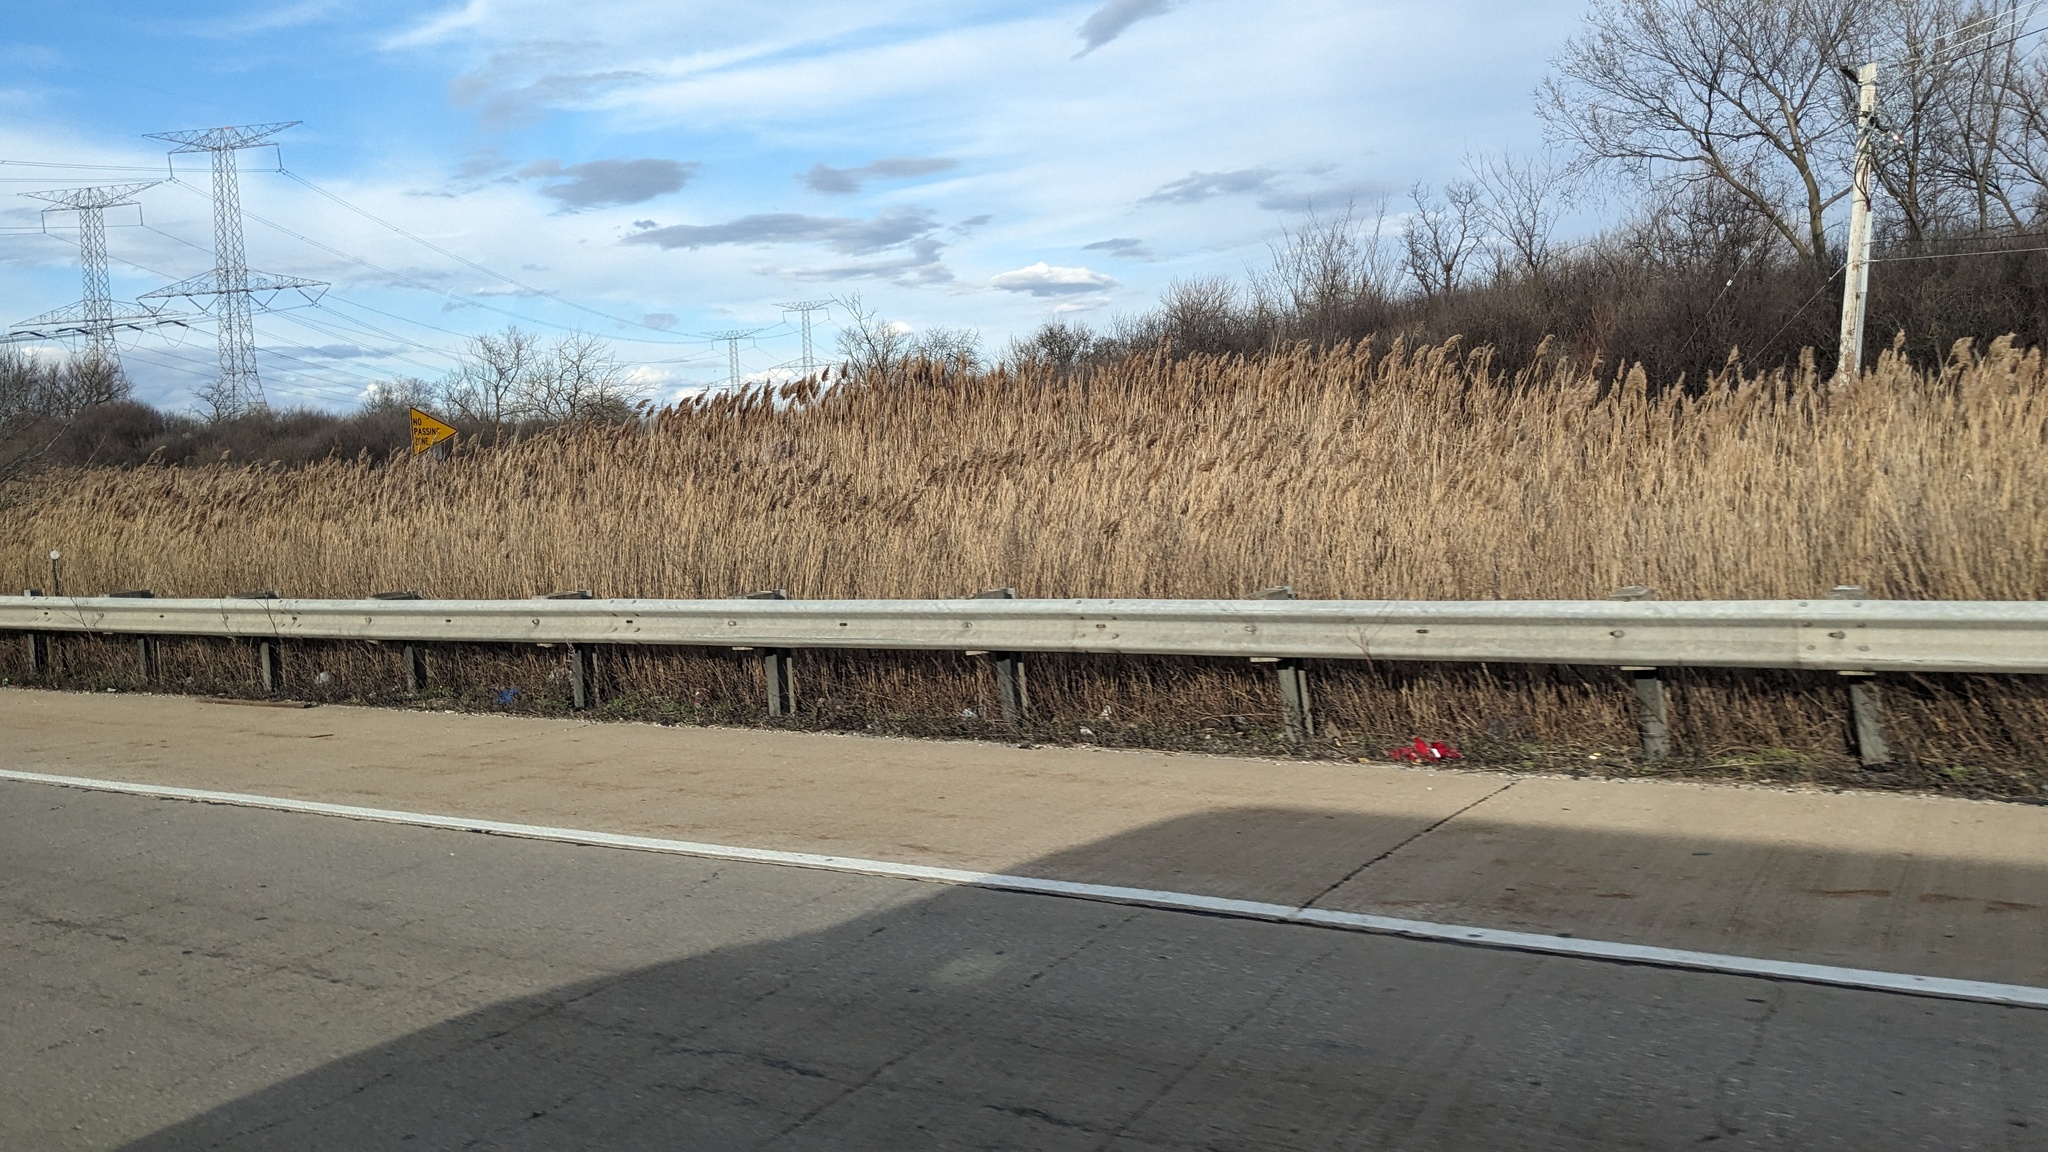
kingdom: Plantae
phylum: Tracheophyta
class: Liliopsida
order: Poales
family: Poaceae
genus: Phragmites
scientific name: Phragmites australis
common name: Common reed
